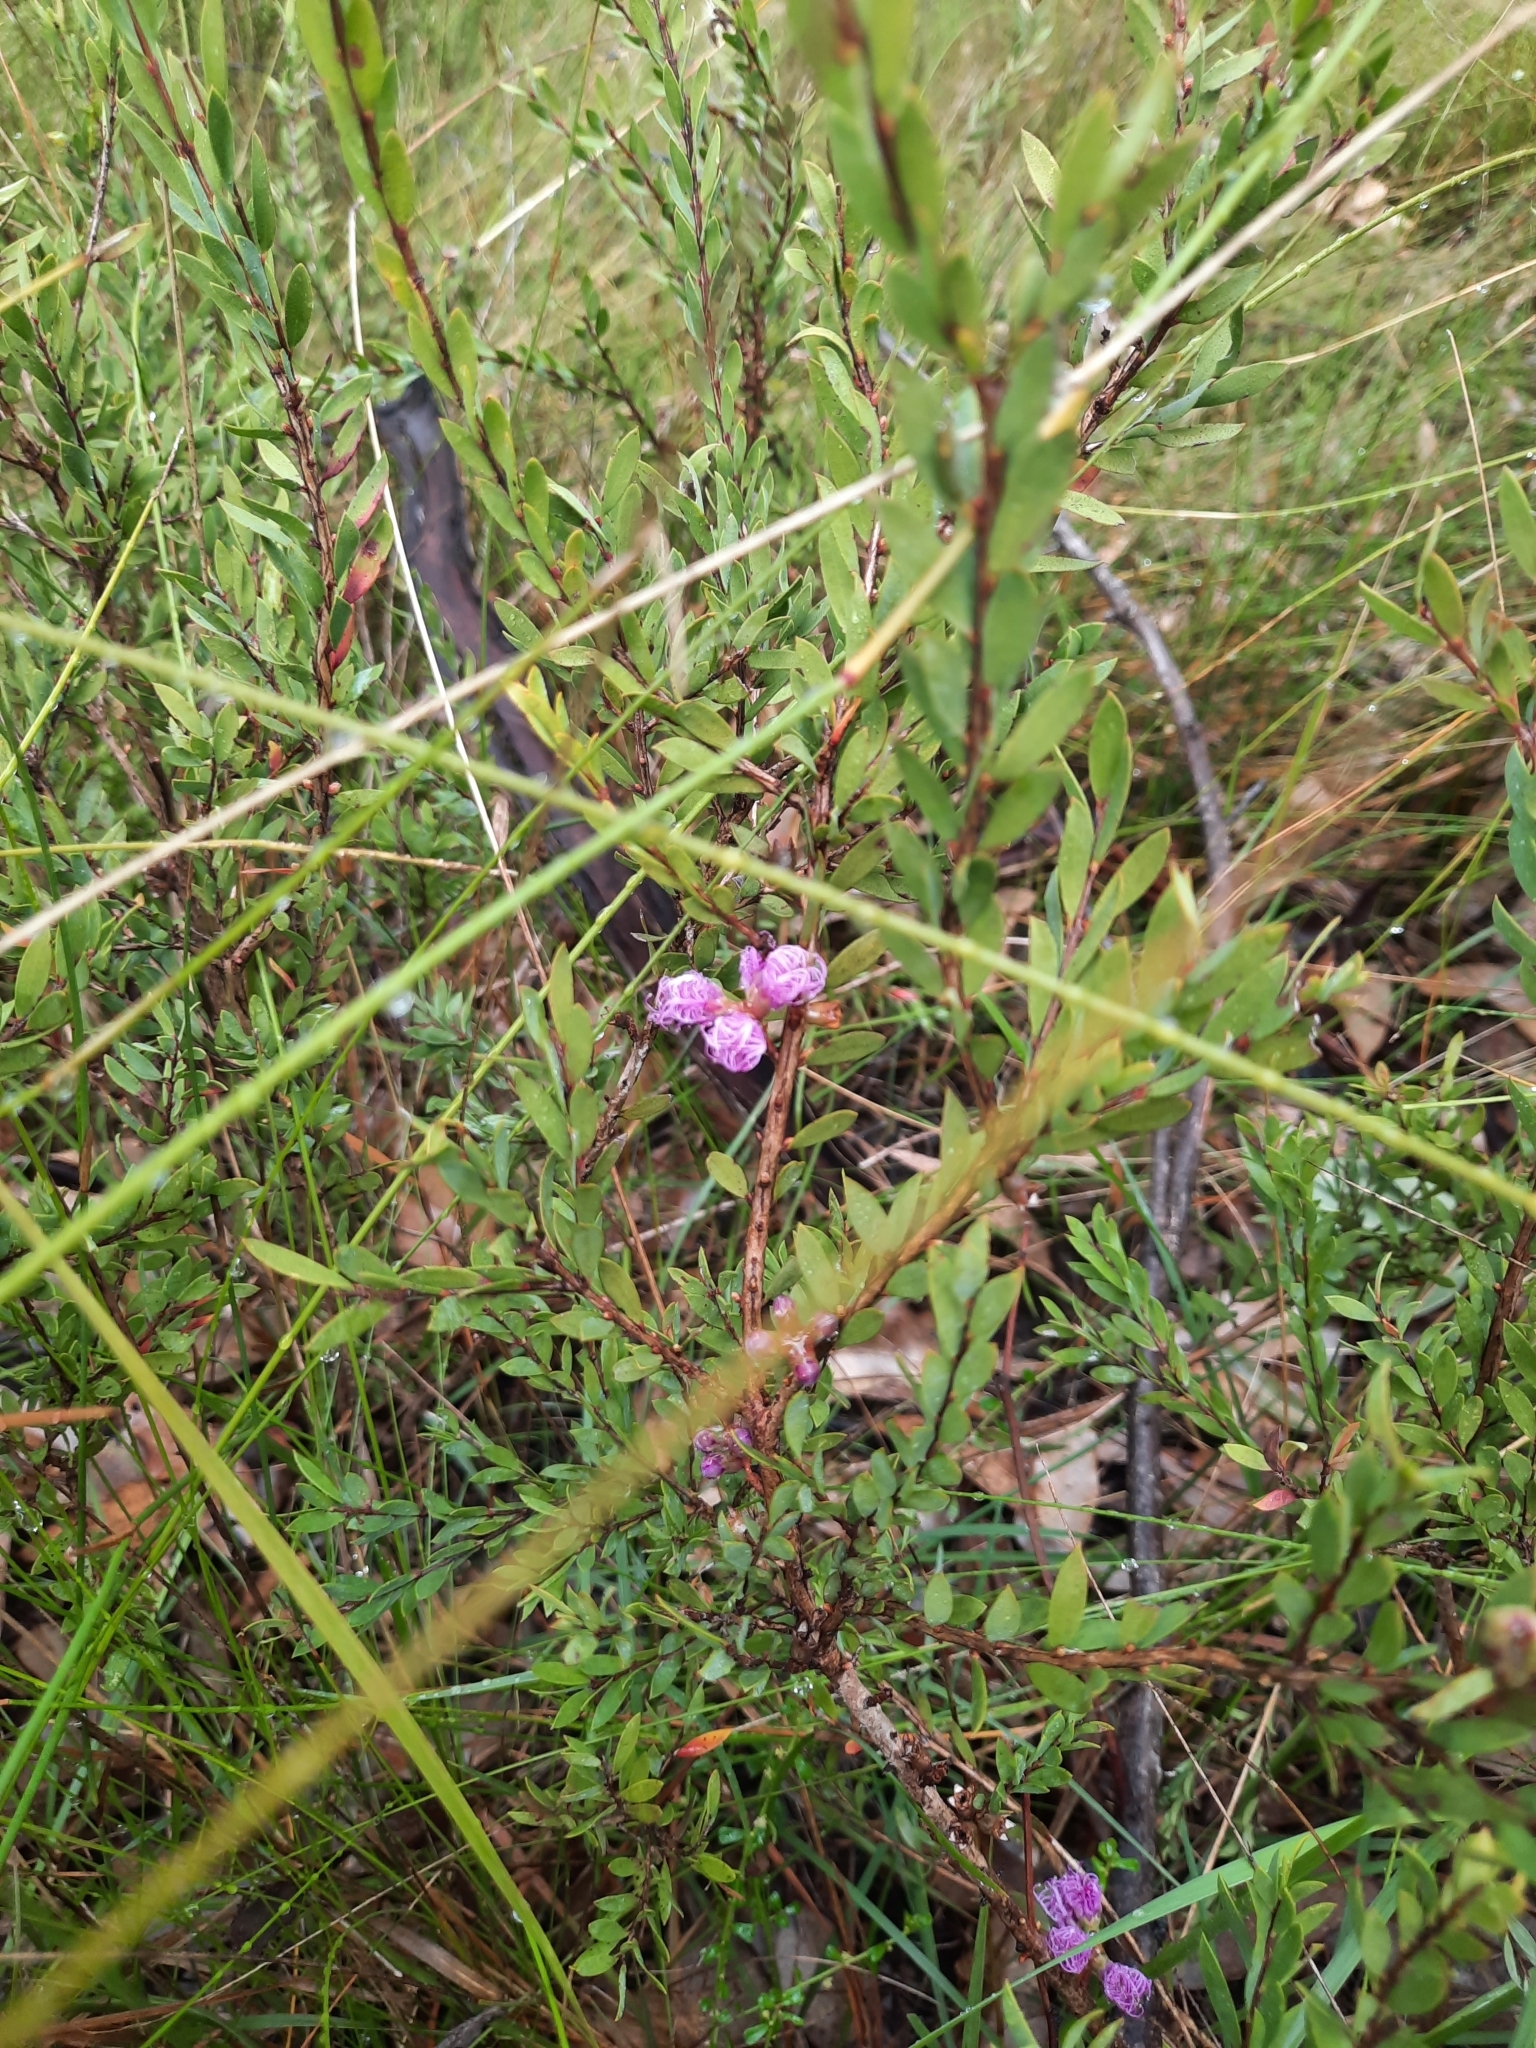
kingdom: Plantae
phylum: Tracheophyta
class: Magnoliopsida
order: Myrtales
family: Myrtaceae
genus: Melaleuca
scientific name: Melaleuca thymifolia
